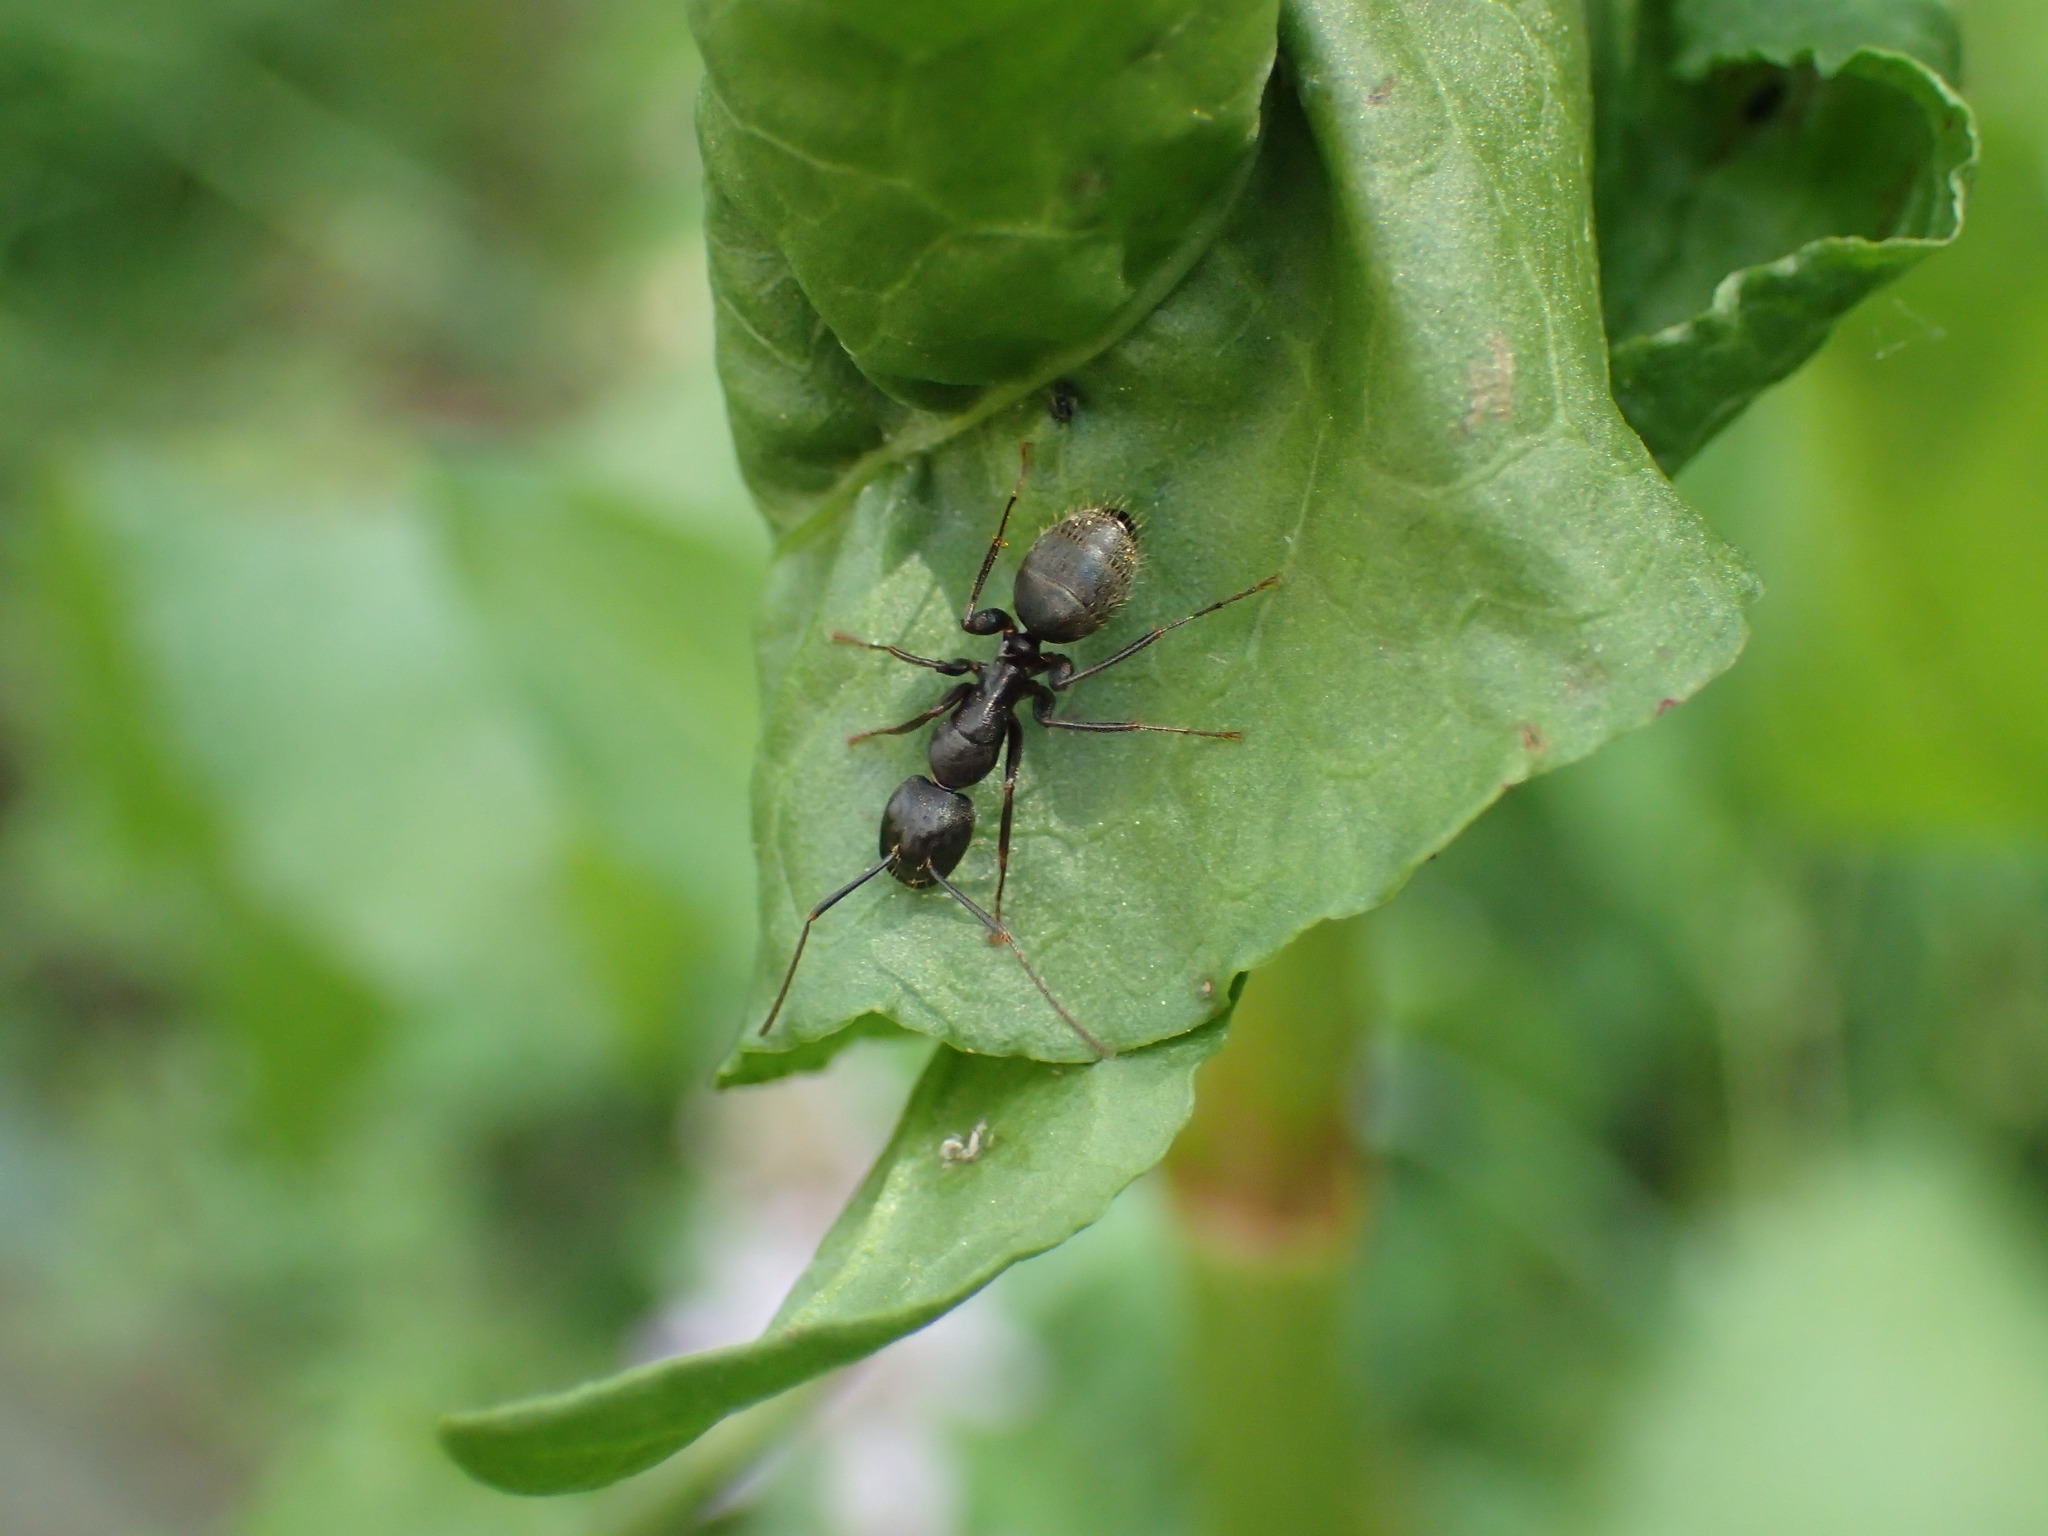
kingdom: Animalia
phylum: Arthropoda
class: Insecta
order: Hymenoptera
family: Formicidae
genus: Camponotus
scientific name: Camponotus pennsylvanicus
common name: Black carpenter ant
